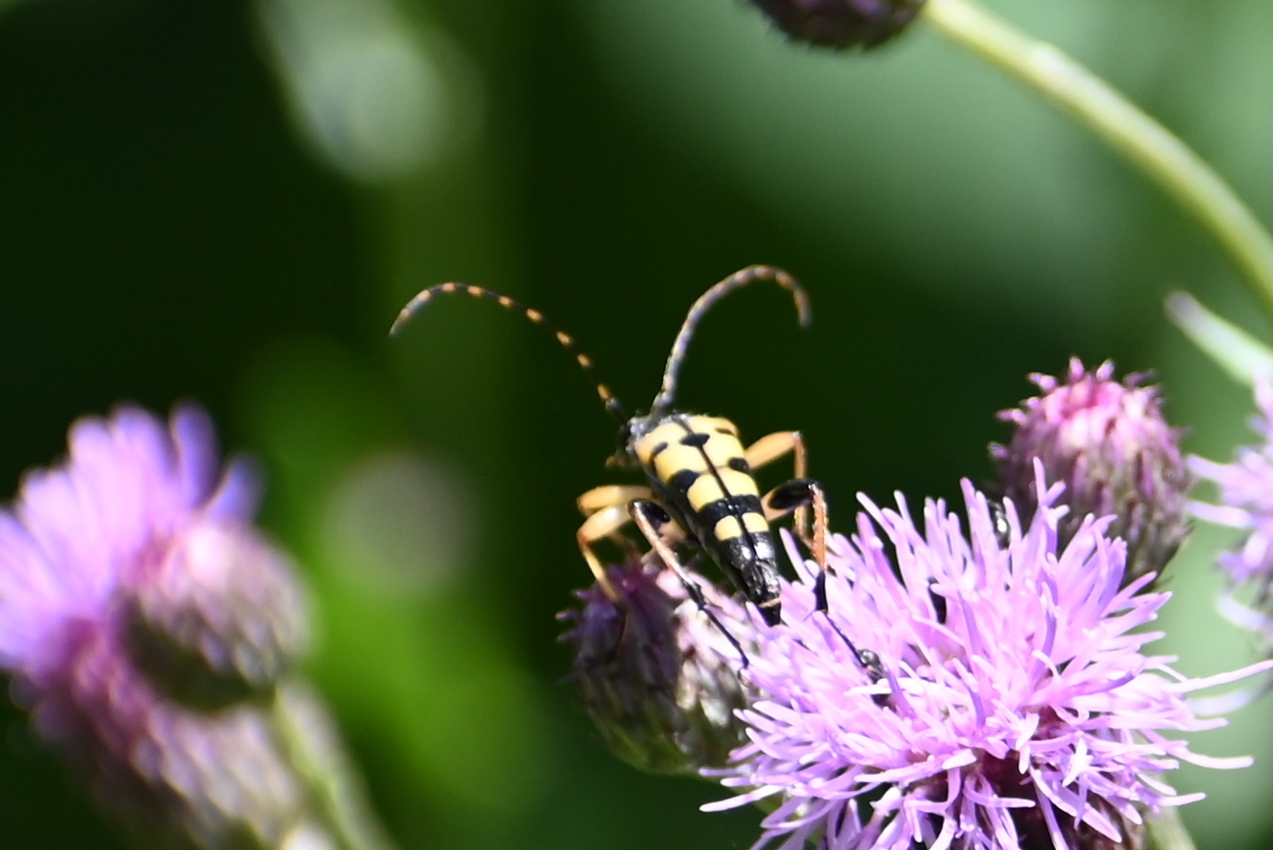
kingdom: Animalia
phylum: Arthropoda
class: Insecta
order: Coleoptera
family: Cerambycidae
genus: Rutpela
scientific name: Rutpela maculata
